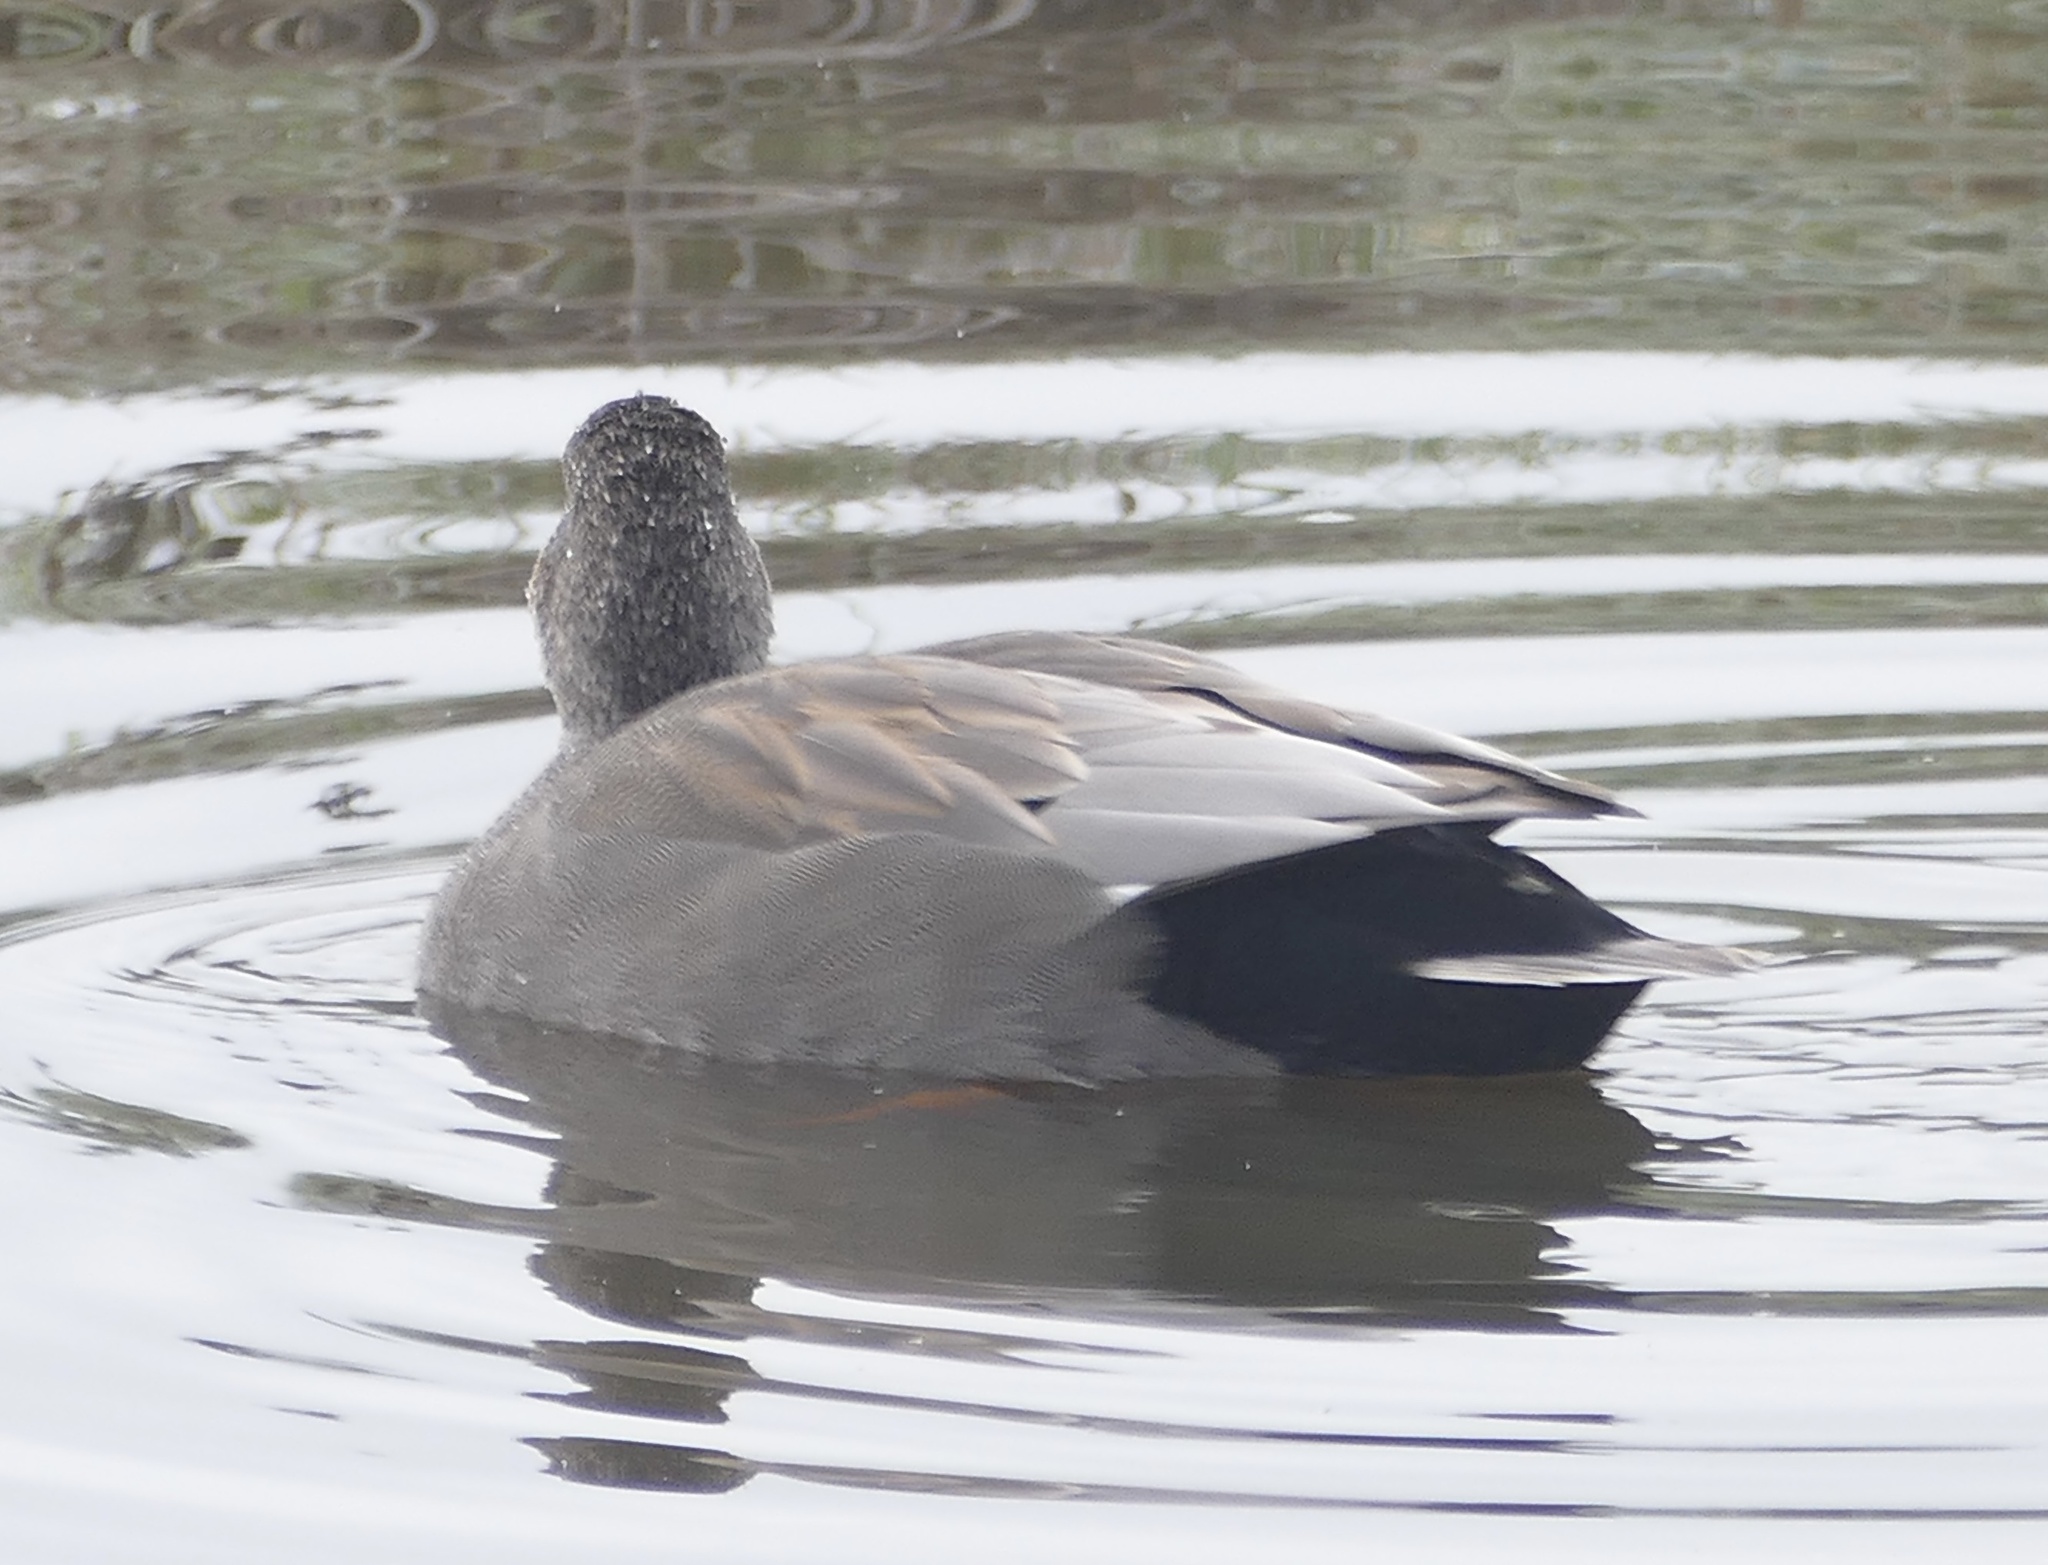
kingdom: Animalia
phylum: Chordata
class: Aves
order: Anseriformes
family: Anatidae
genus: Mareca
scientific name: Mareca strepera
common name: Gadwall
